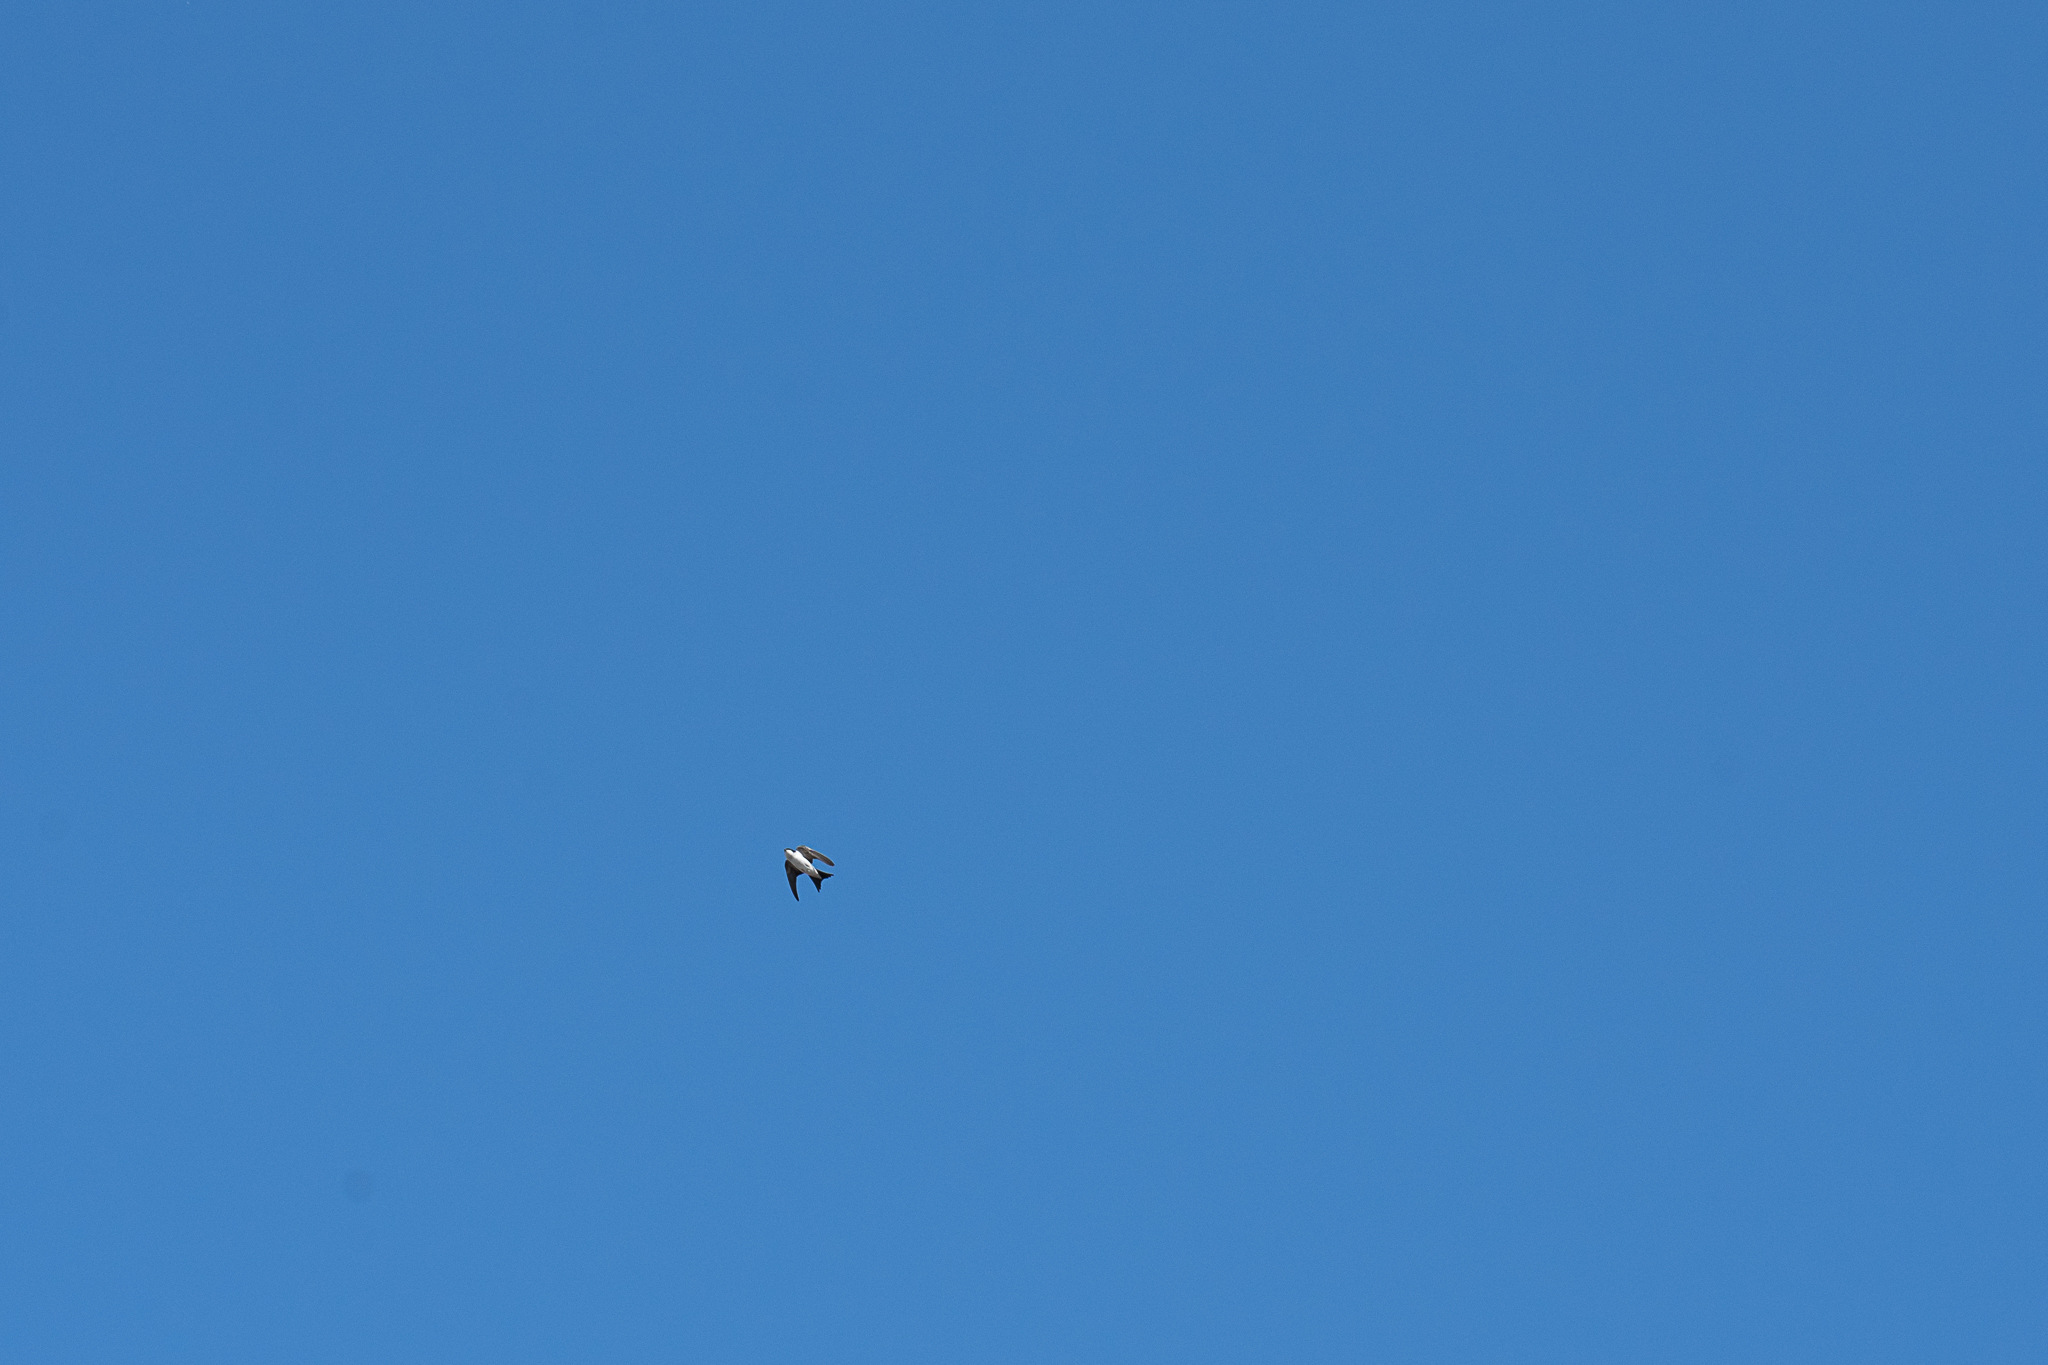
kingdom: Animalia
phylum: Chordata
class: Aves
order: Passeriformes
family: Hirundinidae
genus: Delichon
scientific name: Delichon urbicum
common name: Common house martin
